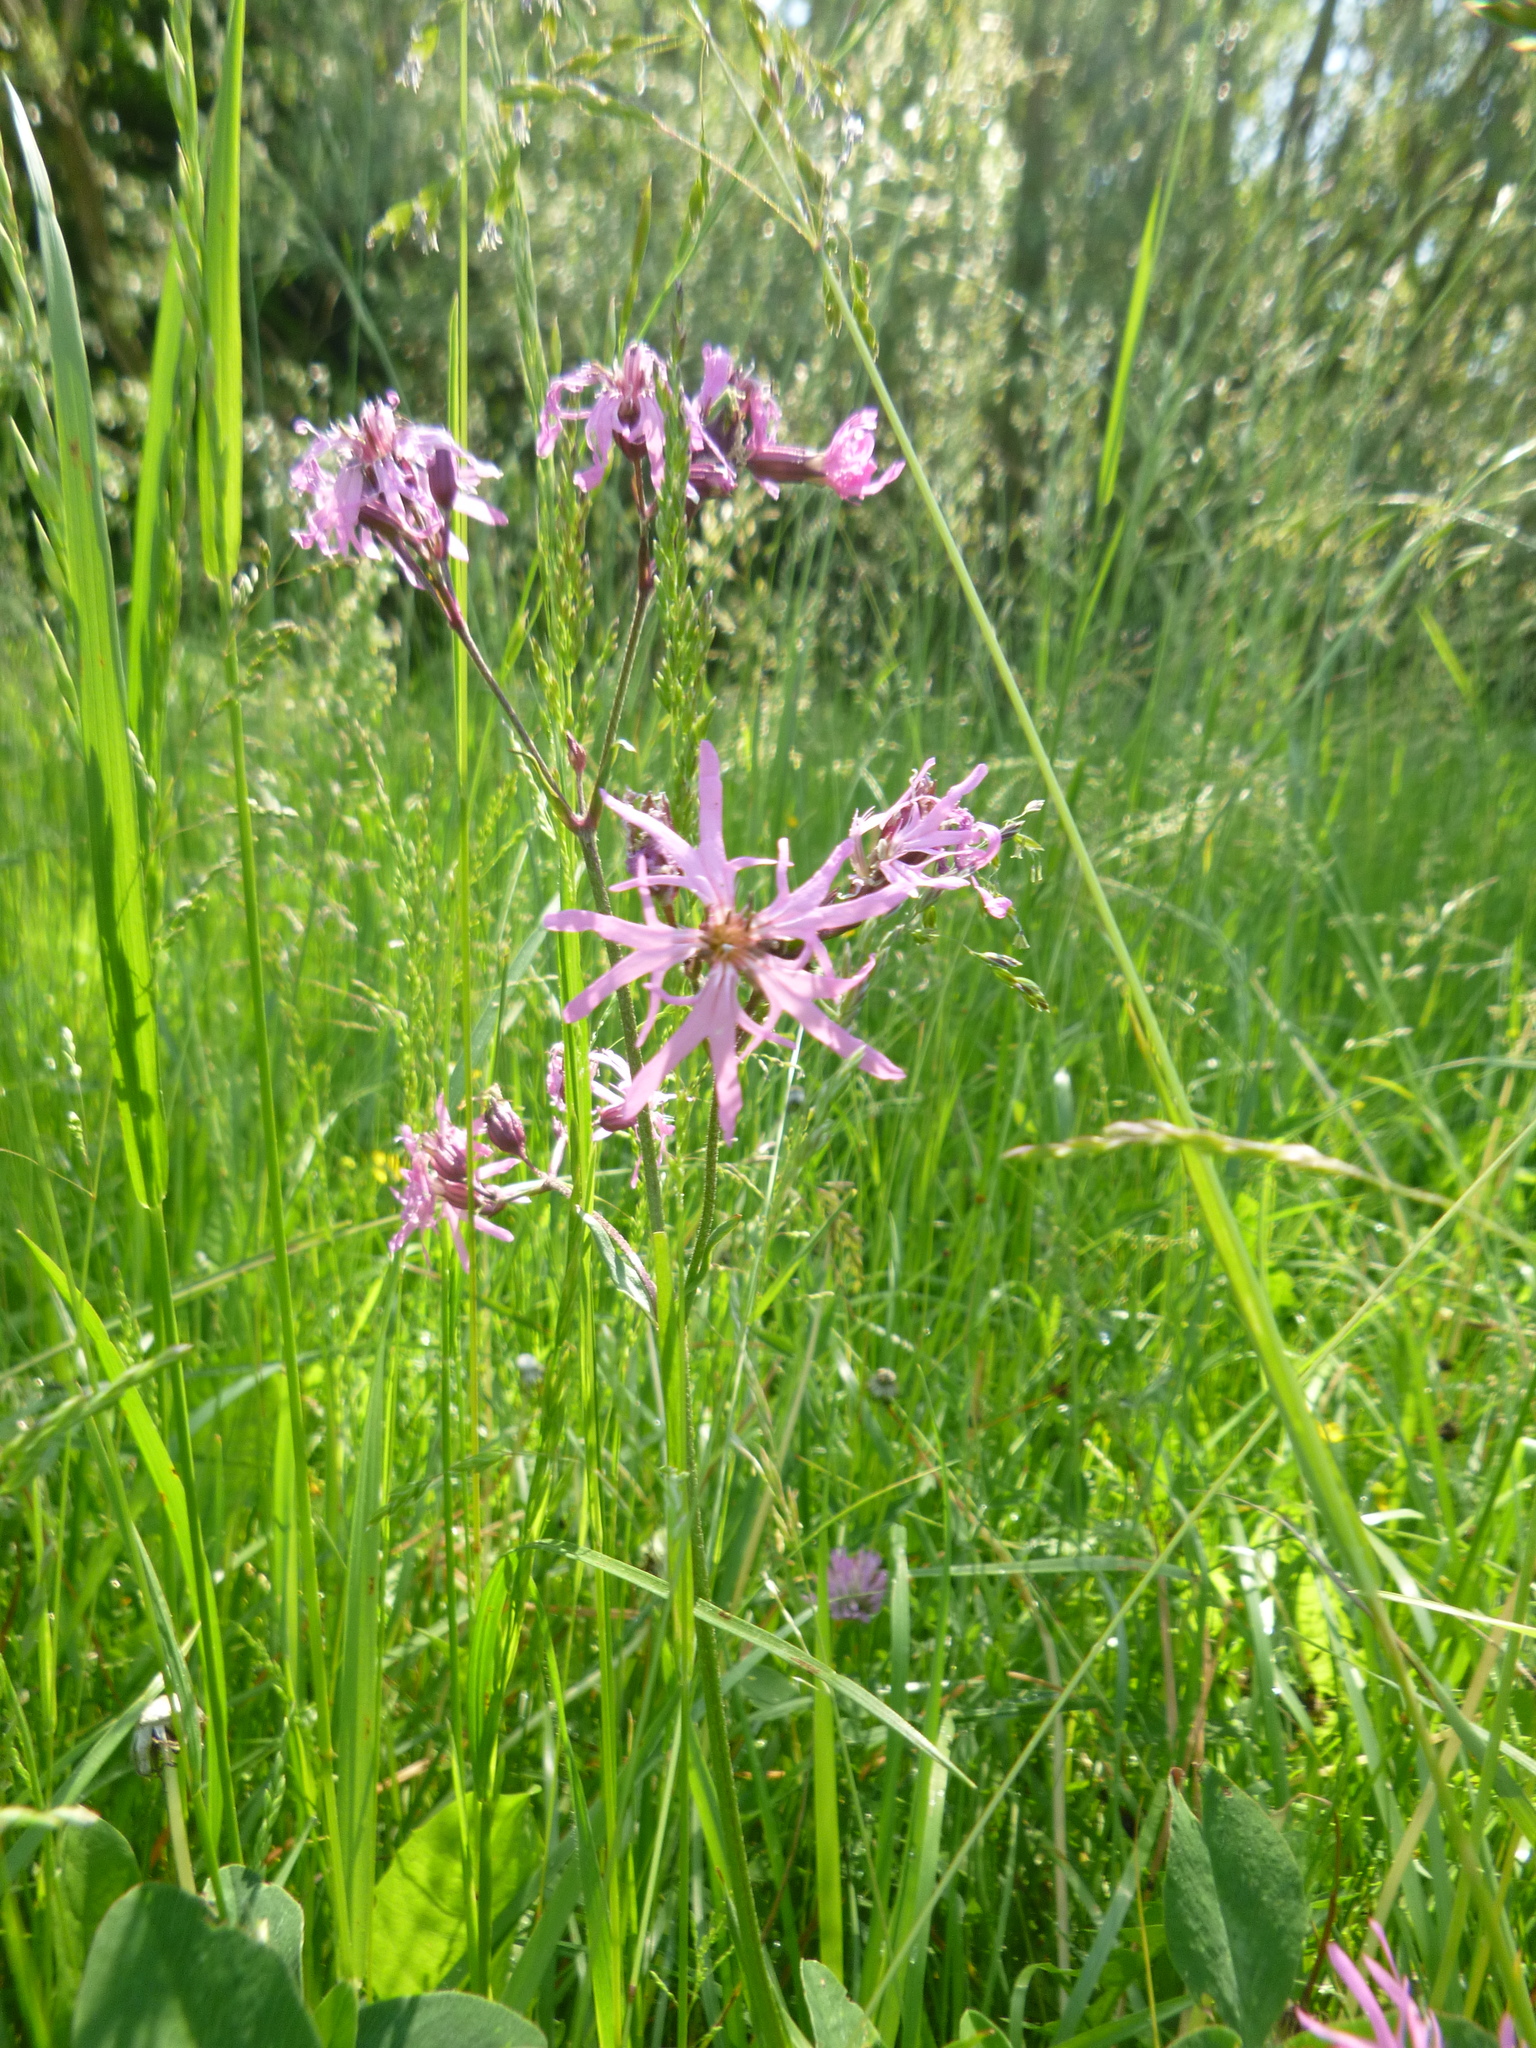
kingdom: Plantae
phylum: Tracheophyta
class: Magnoliopsida
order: Caryophyllales
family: Caryophyllaceae
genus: Silene
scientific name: Silene flos-cuculi
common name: Ragged-robin
